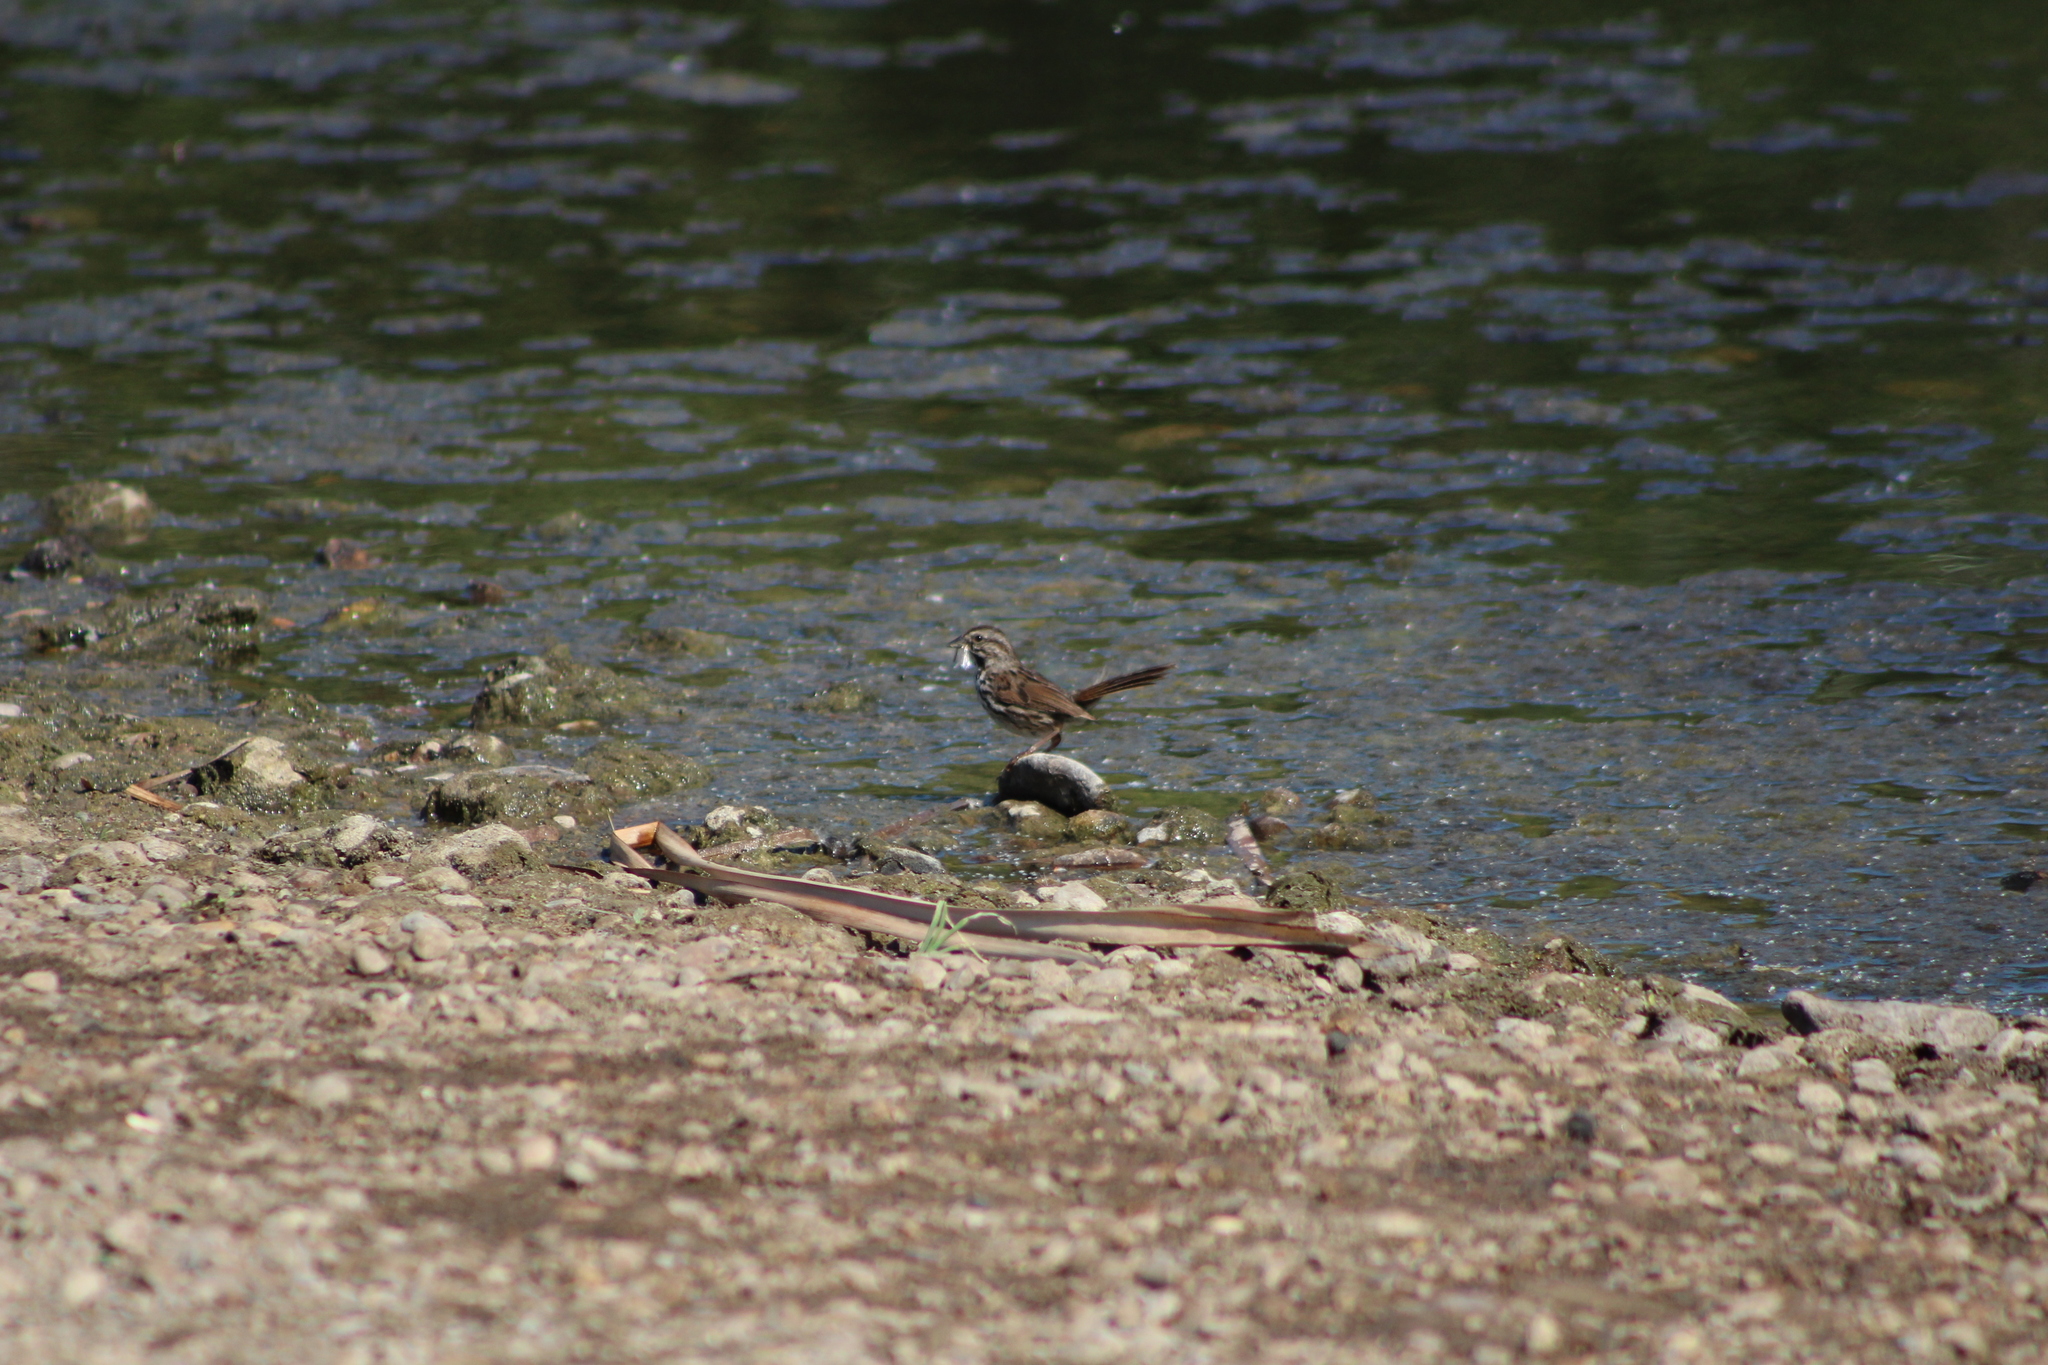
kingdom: Animalia
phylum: Chordata
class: Aves
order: Passeriformes
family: Passerellidae
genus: Melospiza
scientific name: Melospiza melodia
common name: Song sparrow
